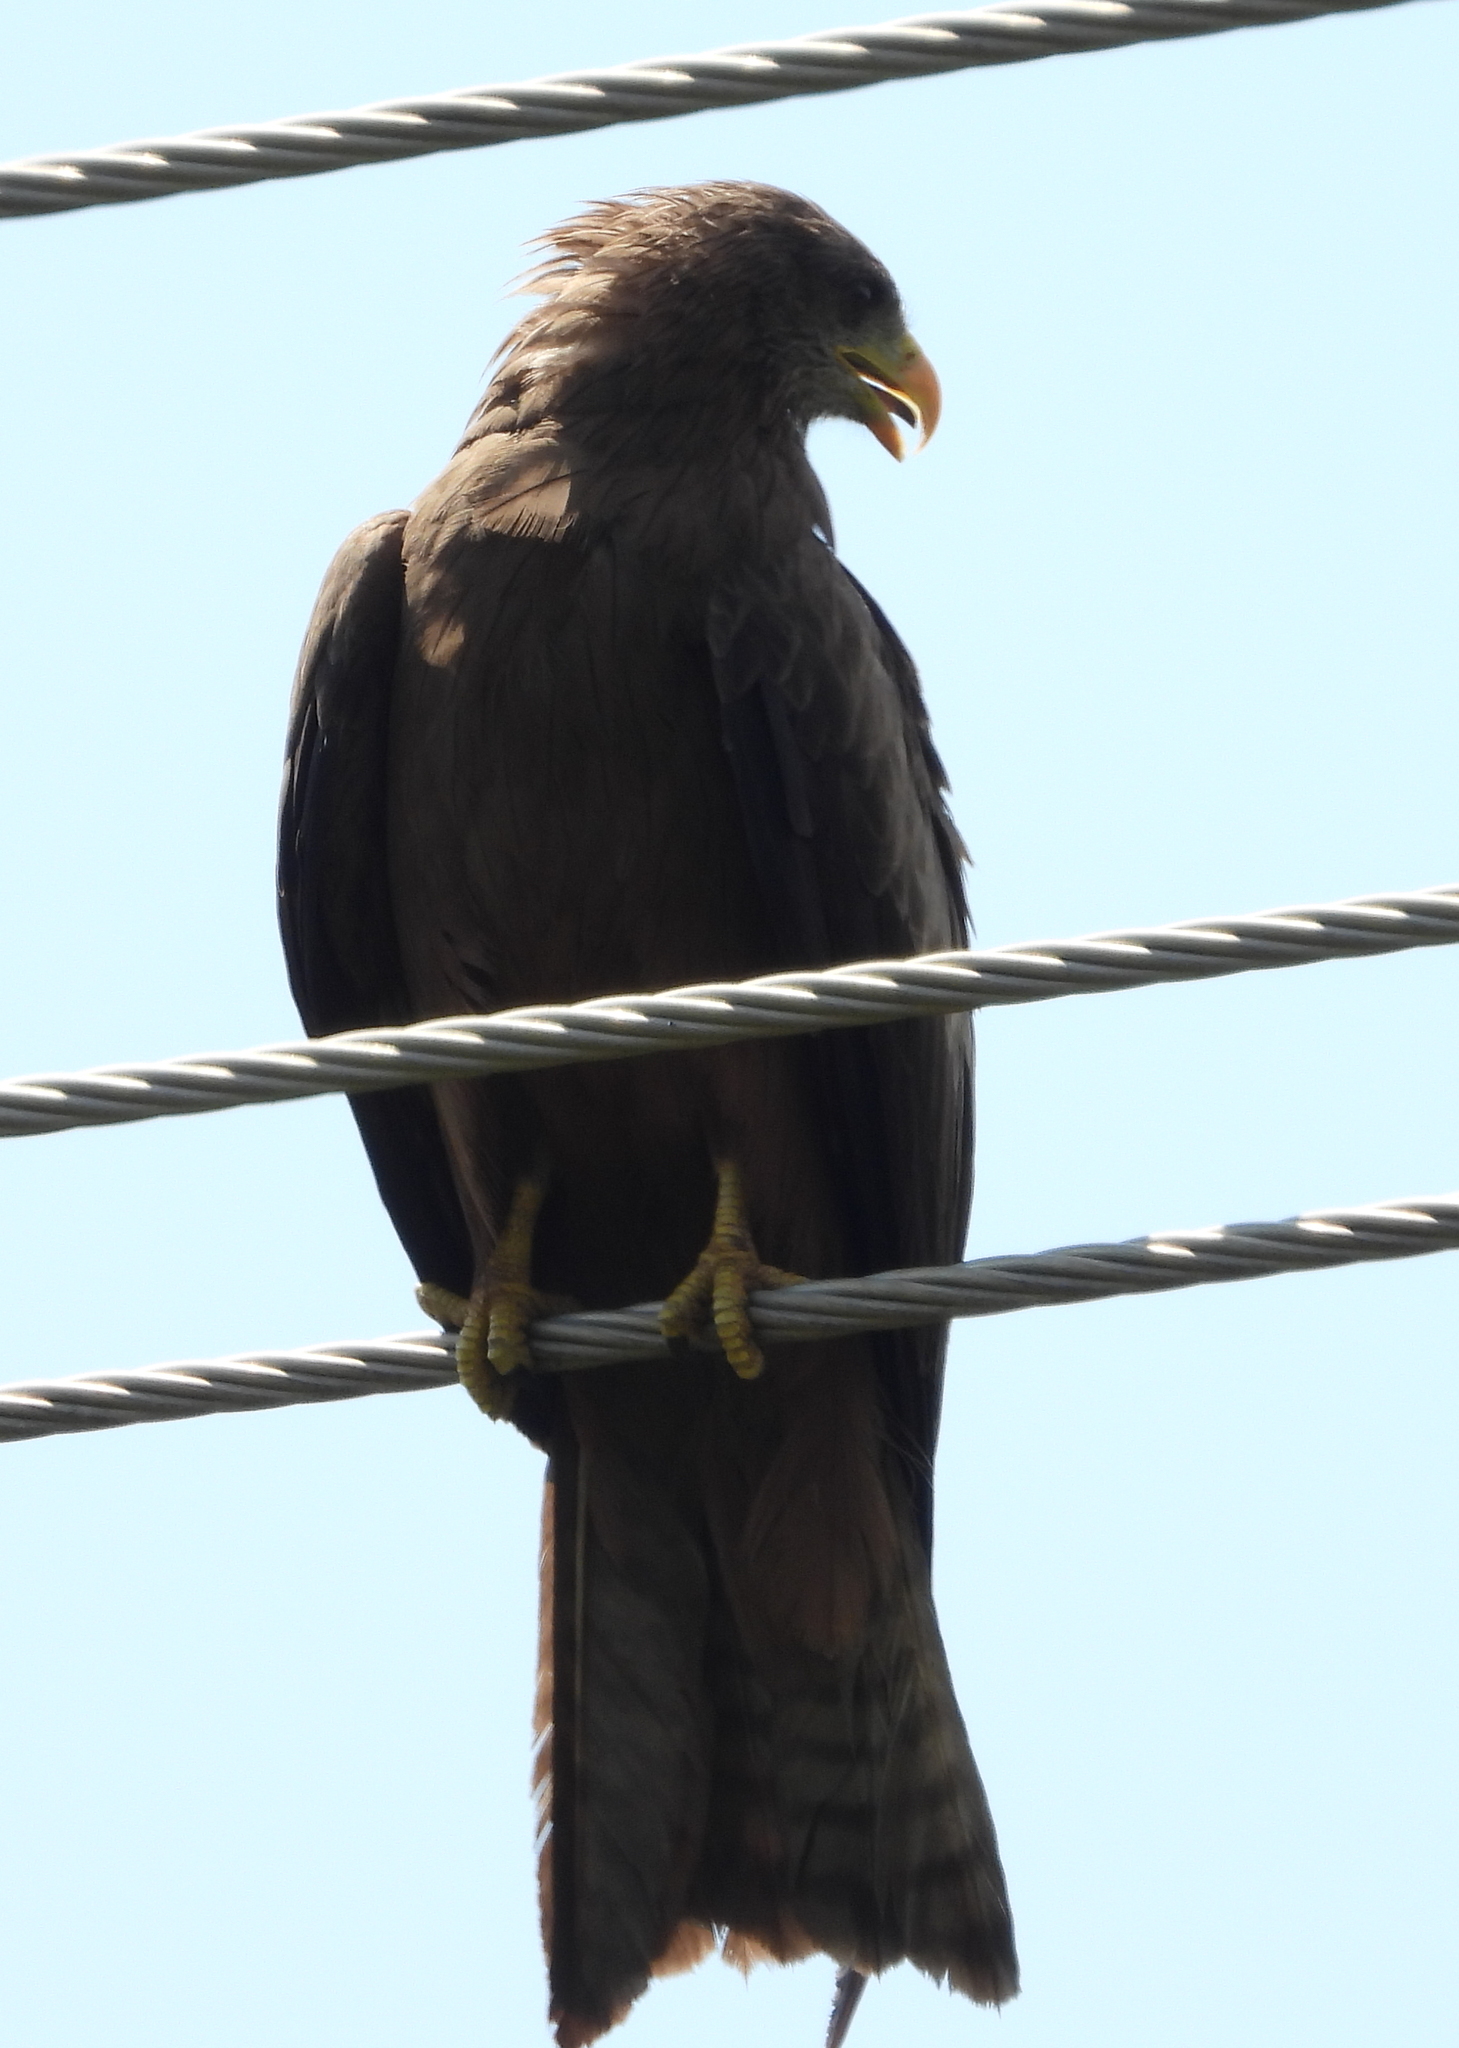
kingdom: Animalia
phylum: Chordata
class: Aves
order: Accipitriformes
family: Accipitridae
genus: Milvus
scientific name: Milvus migrans
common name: Black kite
